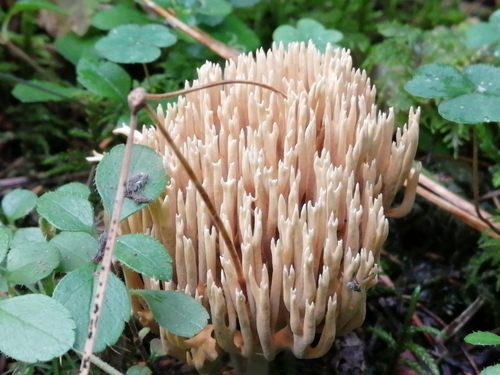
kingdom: Fungi
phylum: Basidiomycota
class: Agaricomycetes
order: Gomphales
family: Gomphaceae
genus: Ramaria
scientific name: Ramaria pallida
